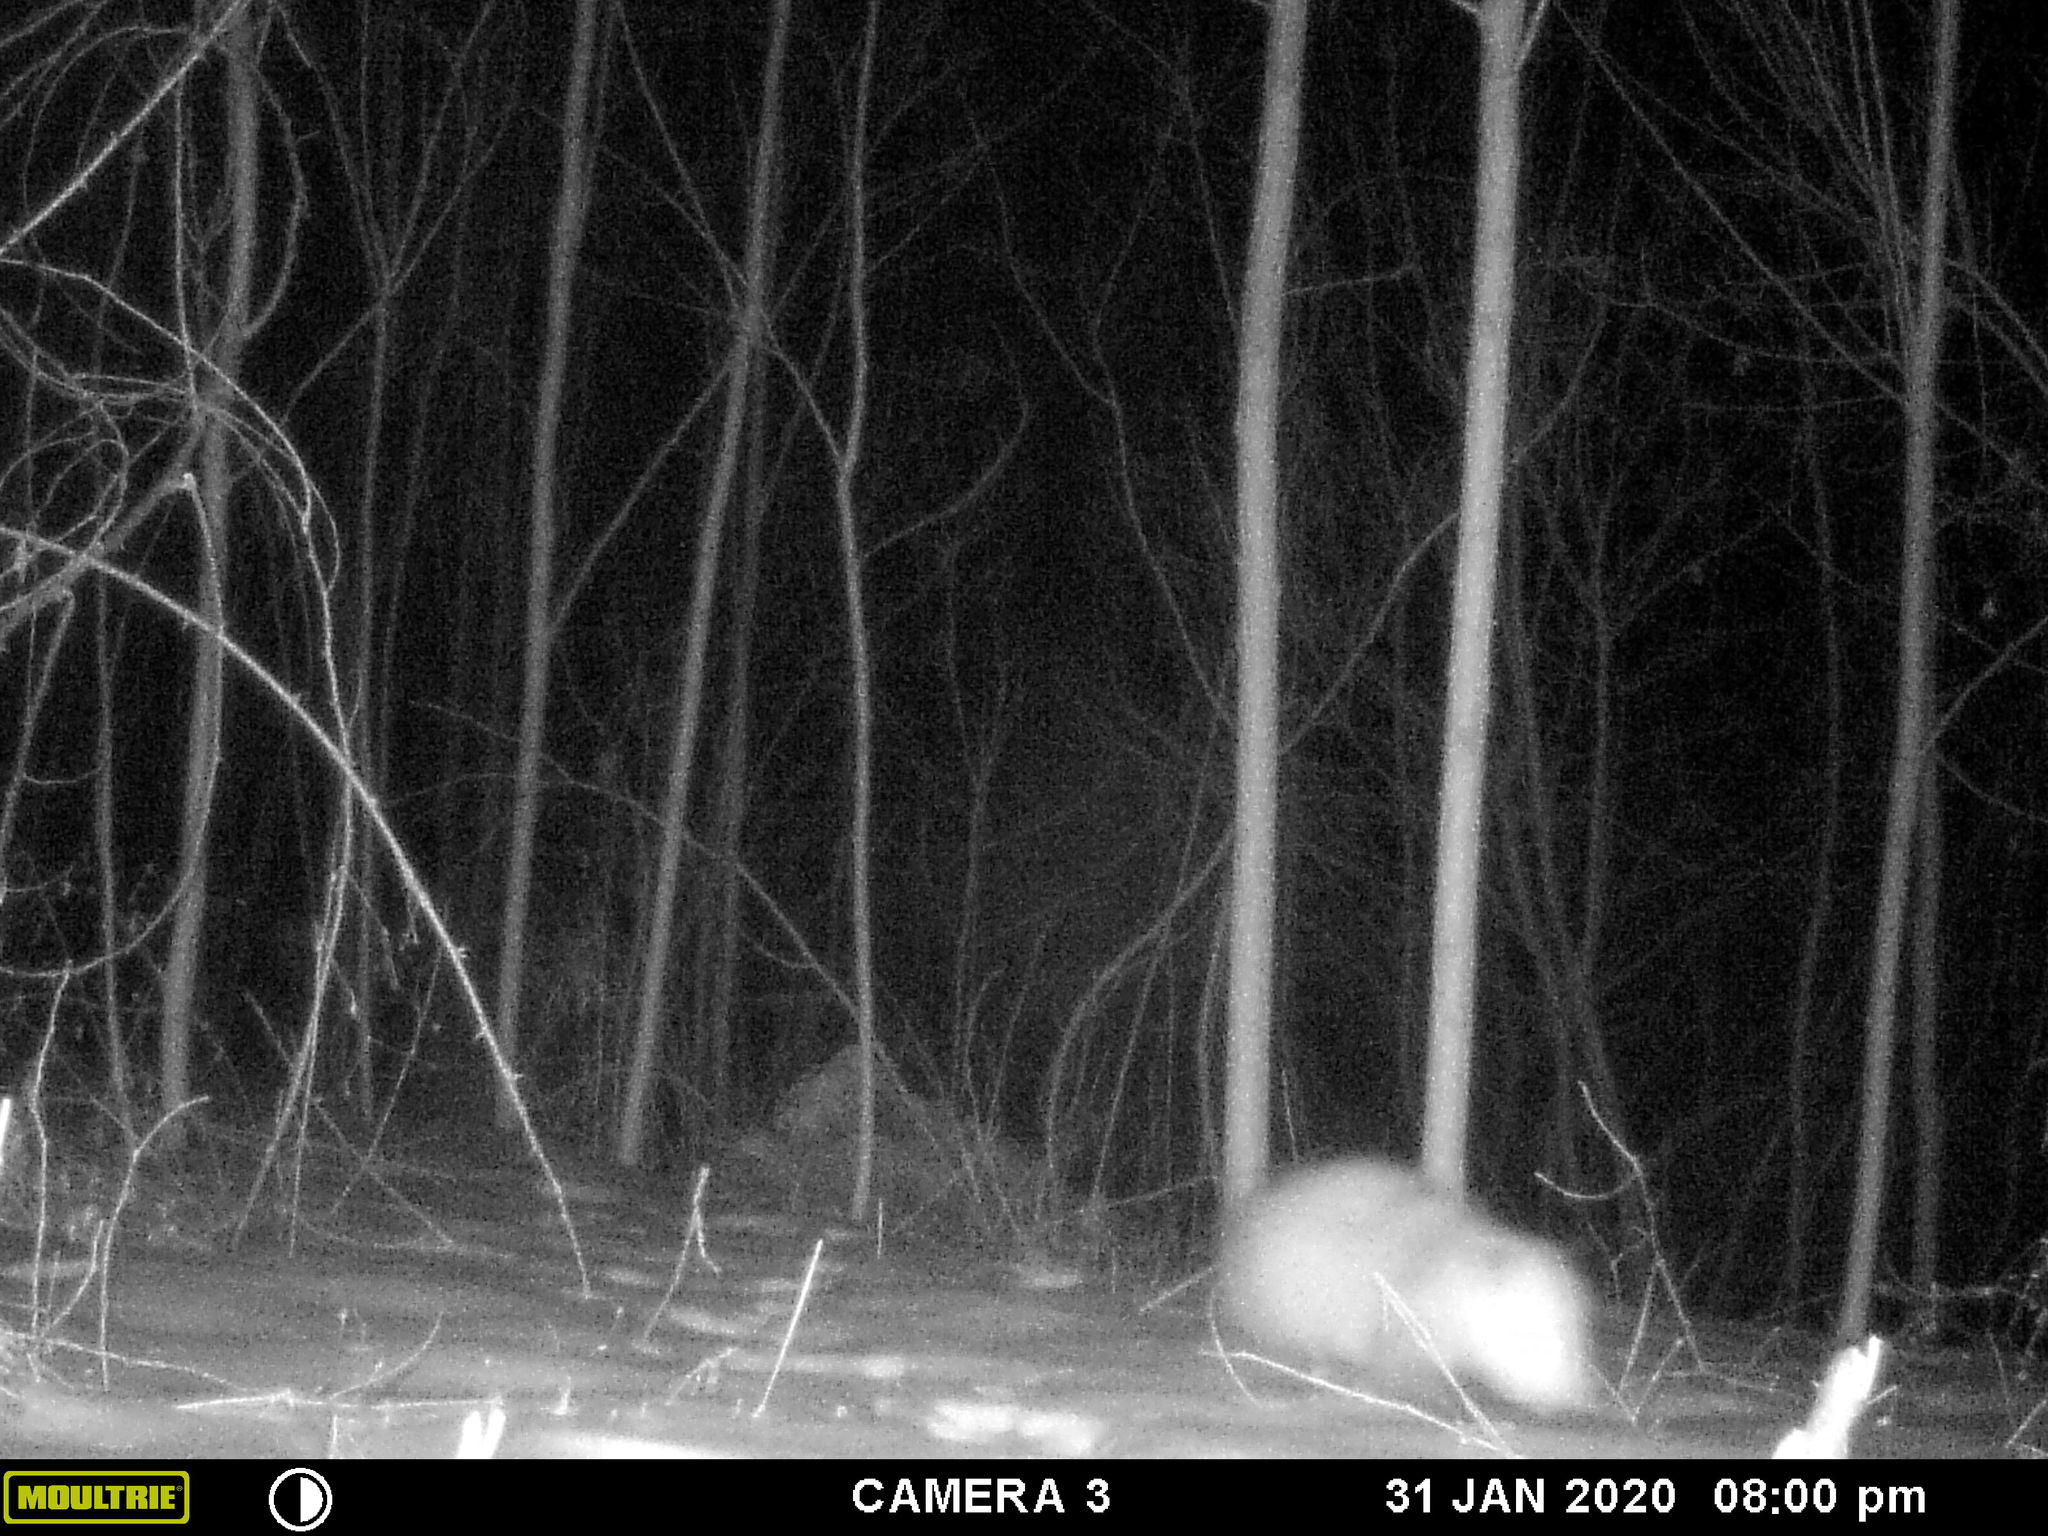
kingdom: Animalia
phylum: Chordata
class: Mammalia
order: Didelphimorphia
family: Didelphidae
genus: Didelphis
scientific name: Didelphis virginiana
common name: Virginia opossum
